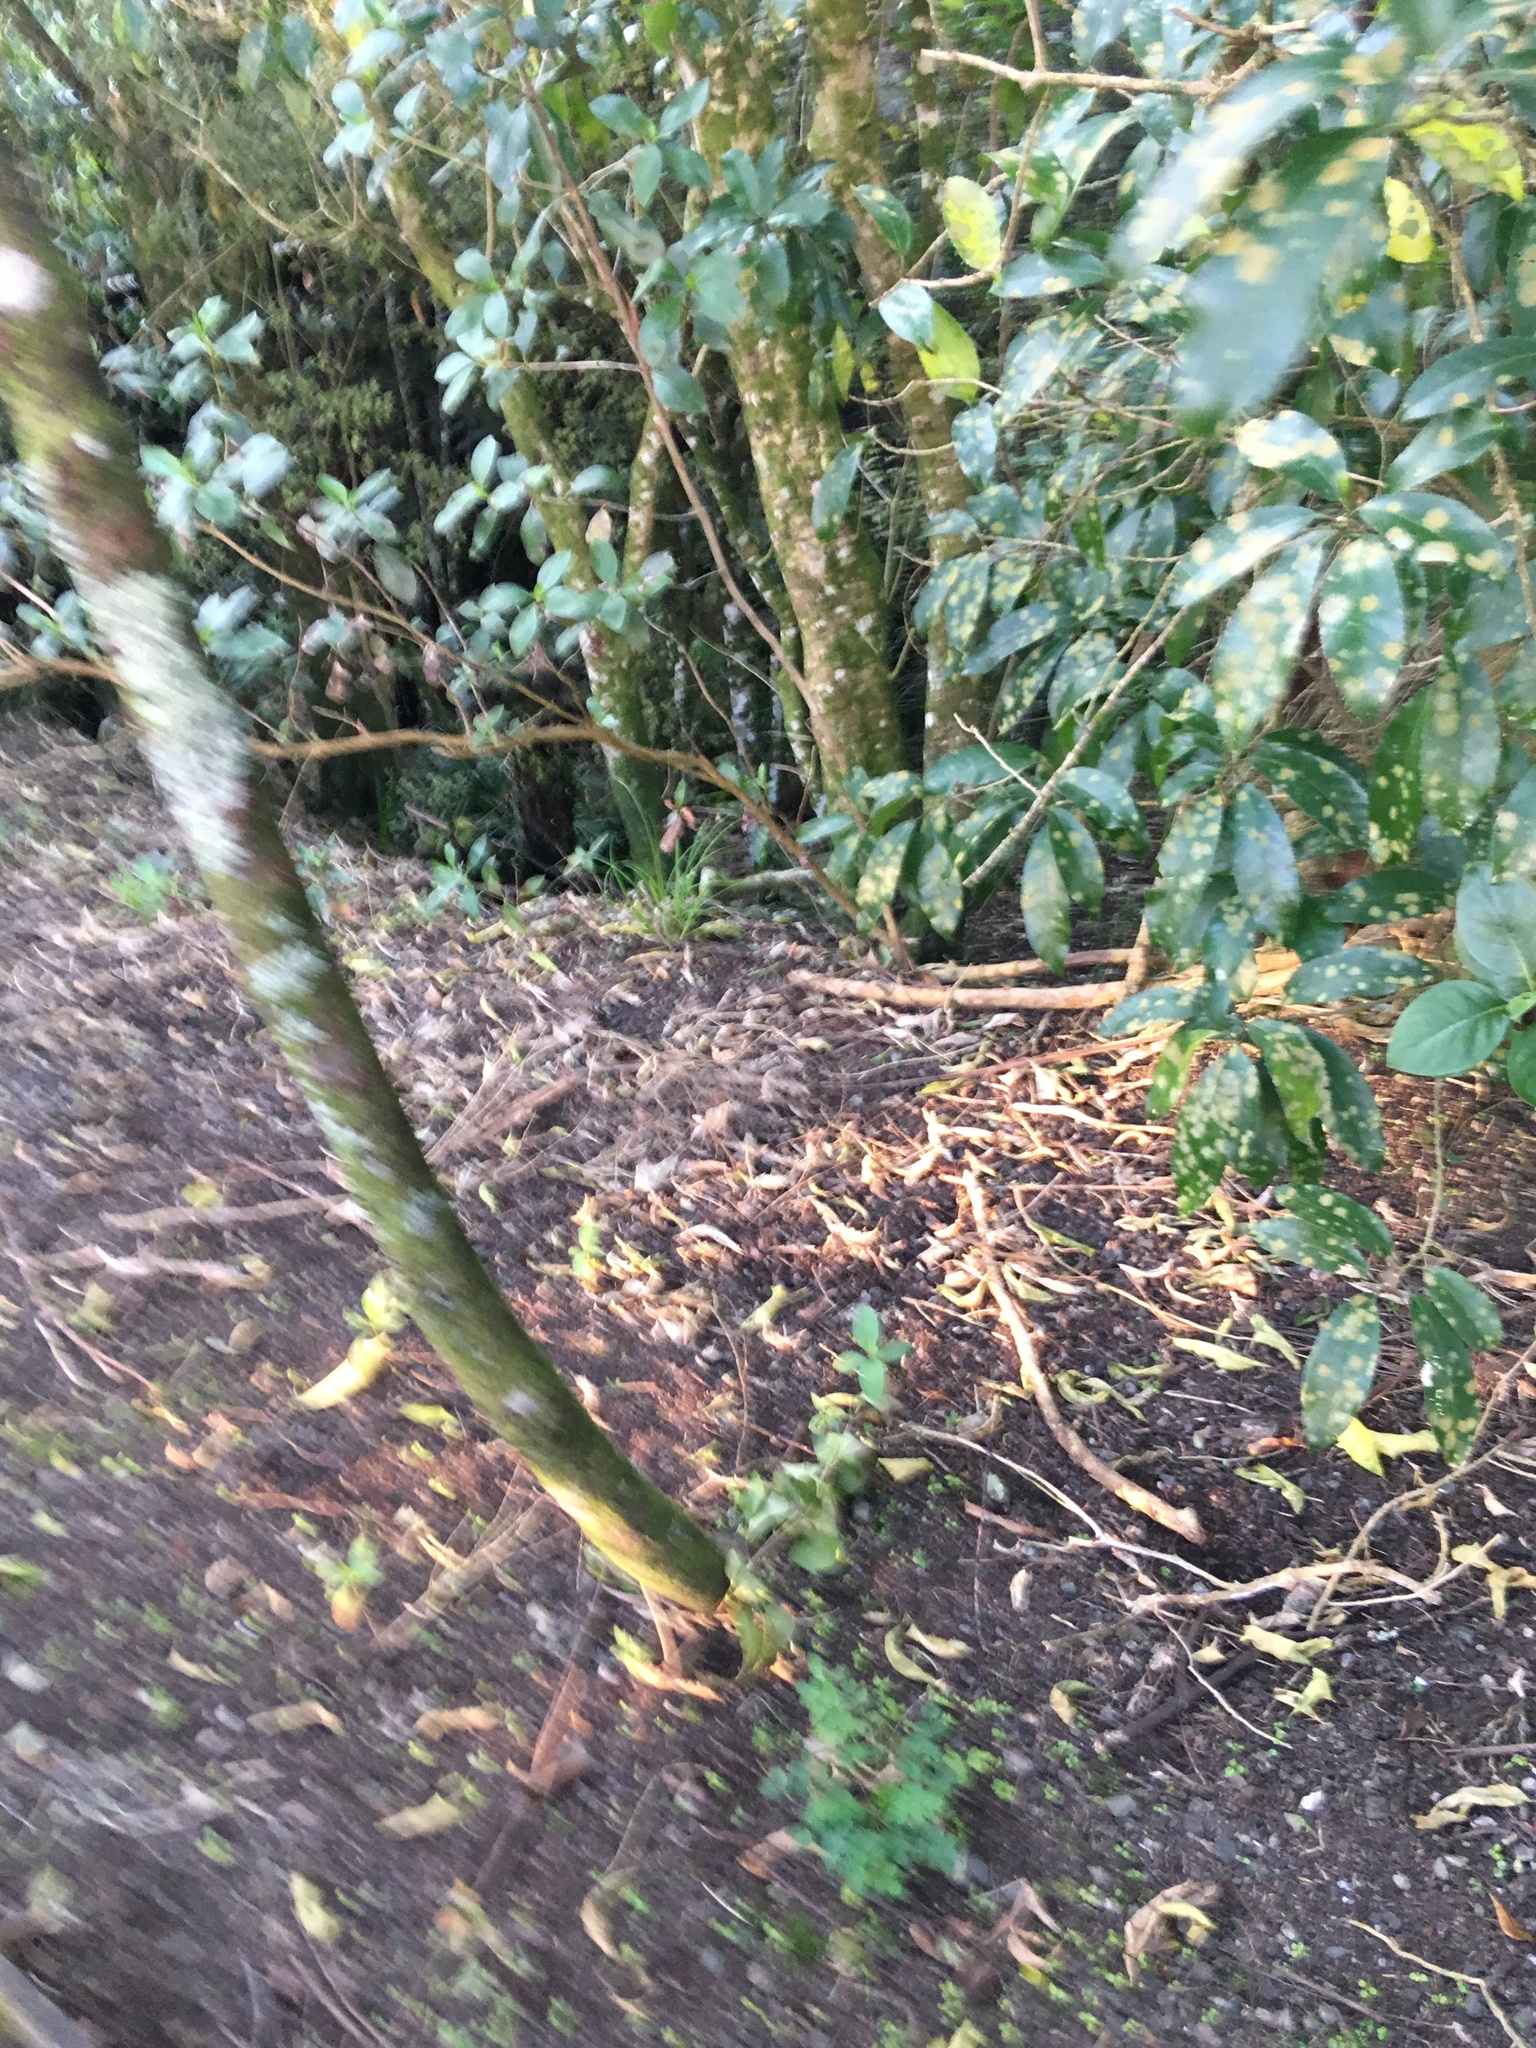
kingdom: Plantae
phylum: Tracheophyta
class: Magnoliopsida
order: Malpighiales
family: Violaceae
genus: Melicytus
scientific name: Melicytus ramiflorus
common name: Mahoe
